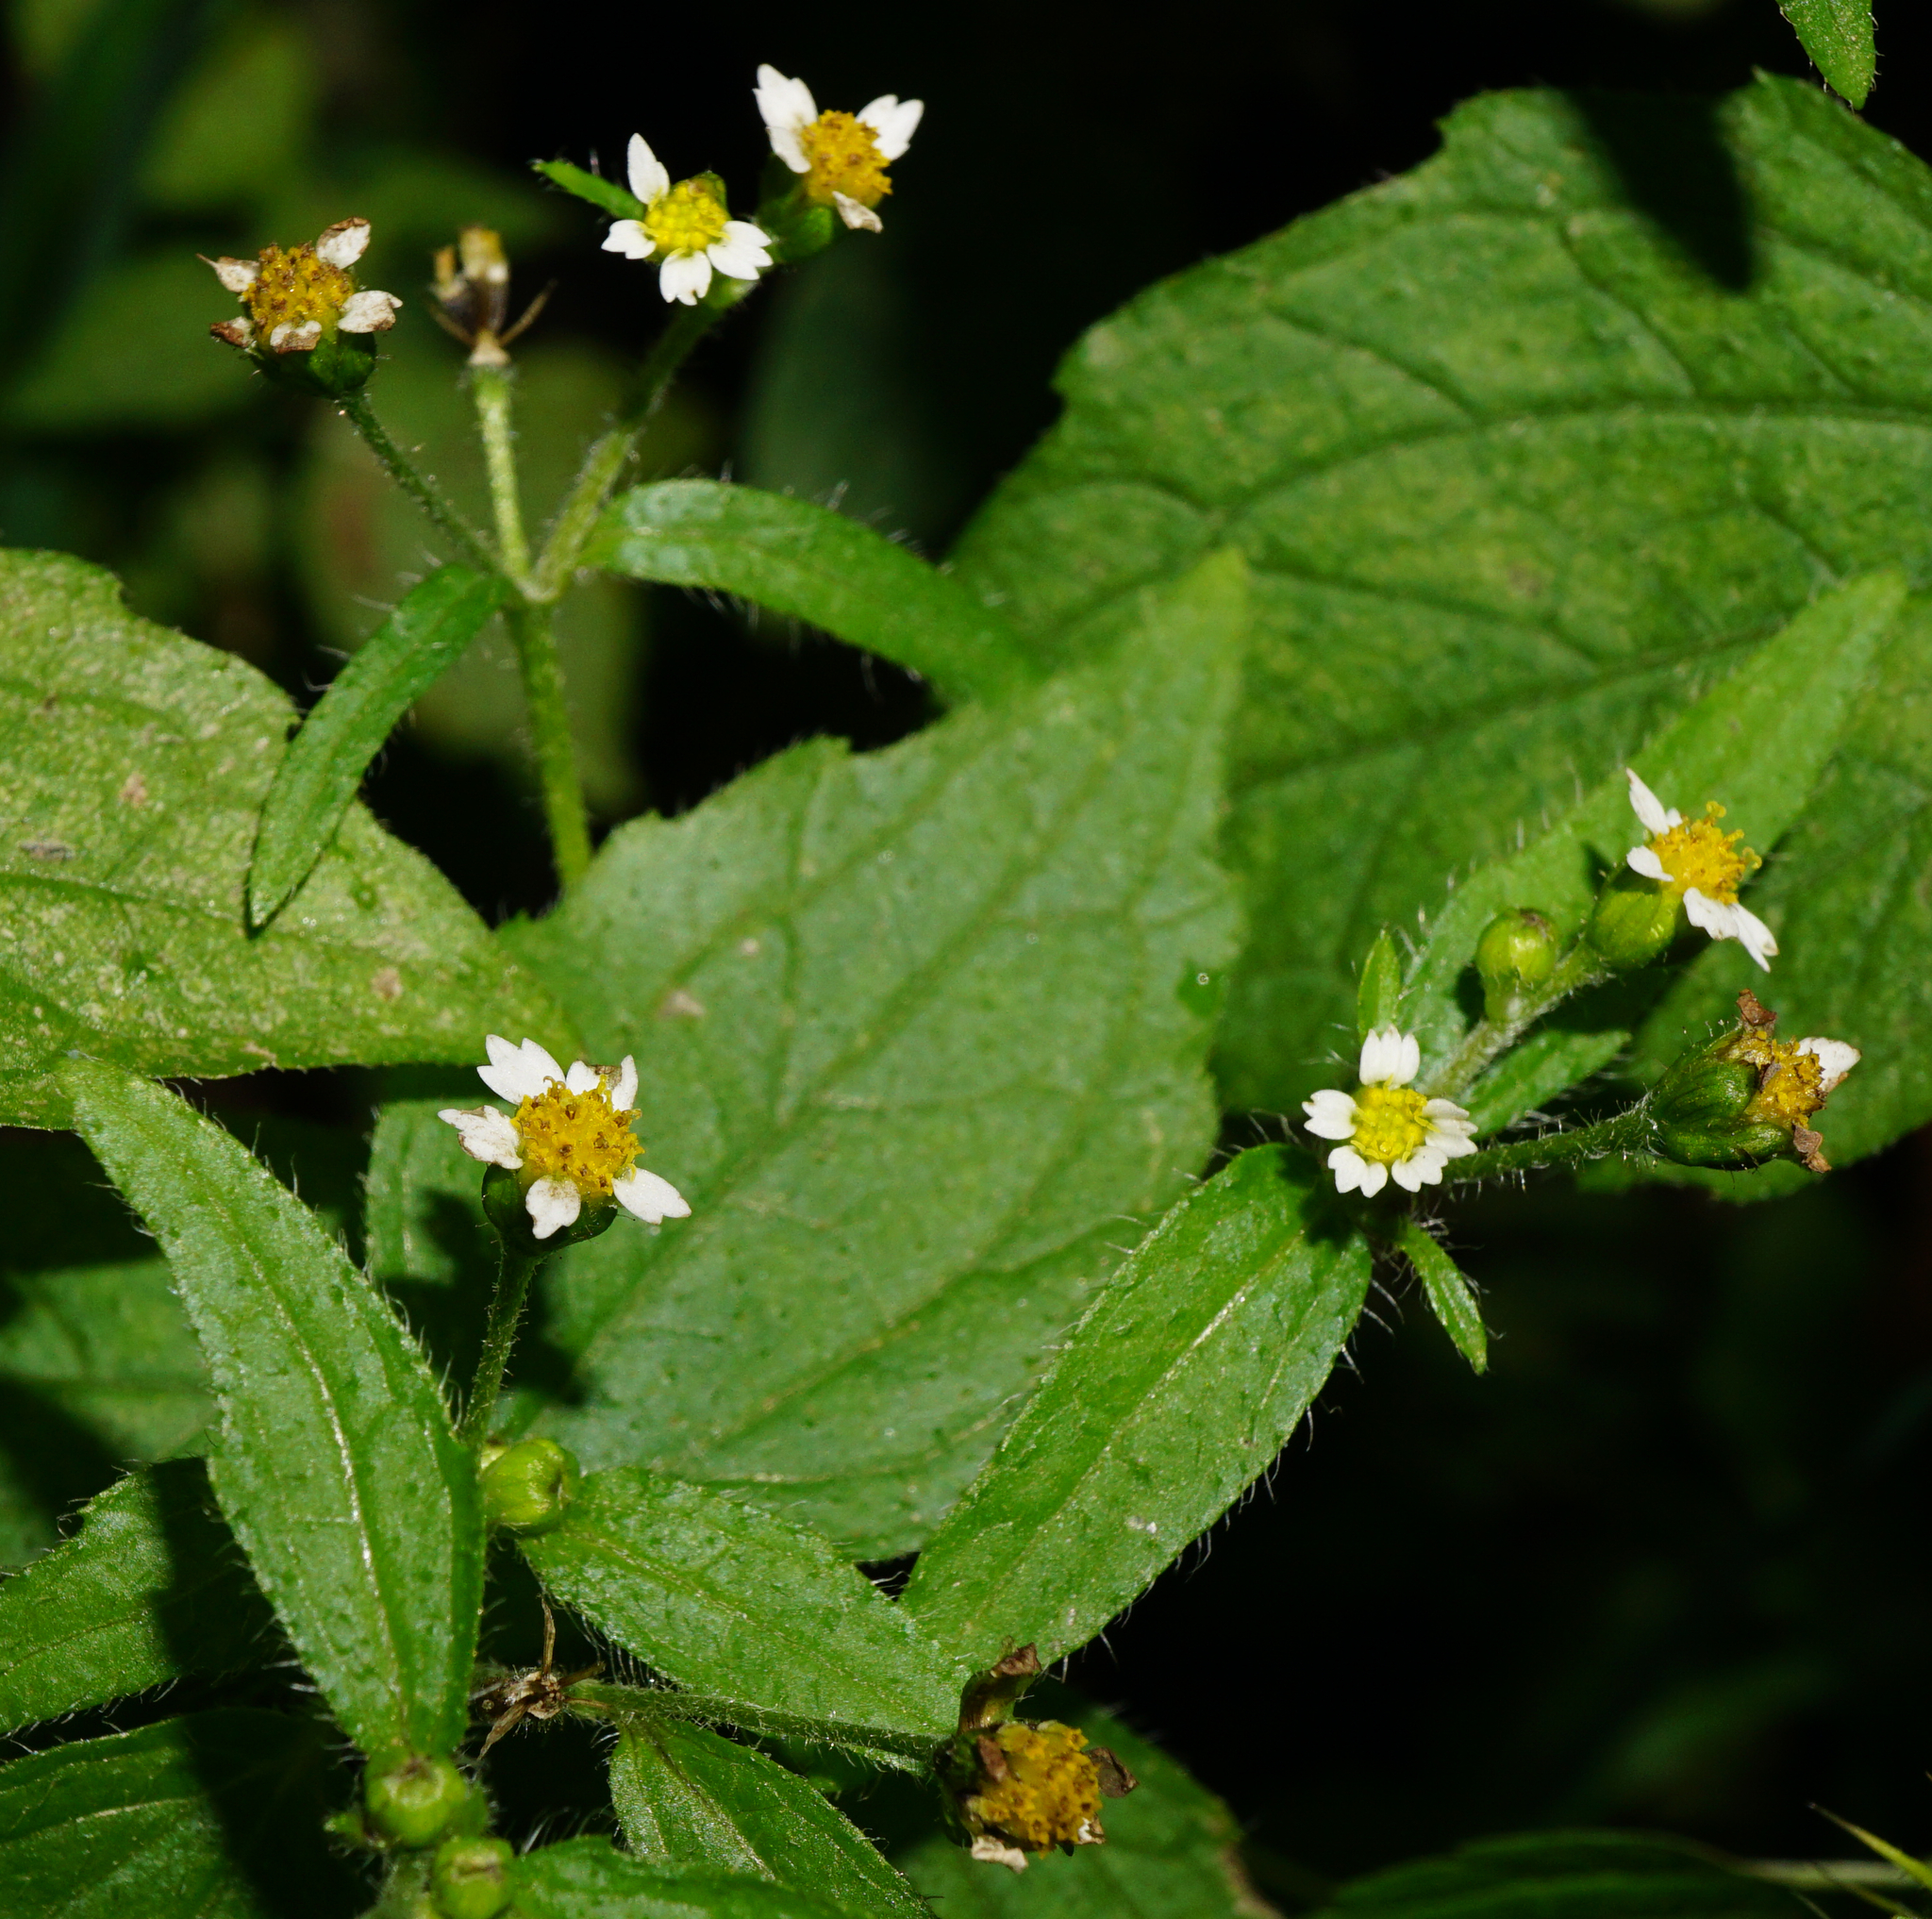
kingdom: Plantae
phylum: Tracheophyta
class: Magnoliopsida
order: Asterales
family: Asteraceae
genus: Galinsoga
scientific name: Galinsoga quadriradiata
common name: Shaggy soldier
